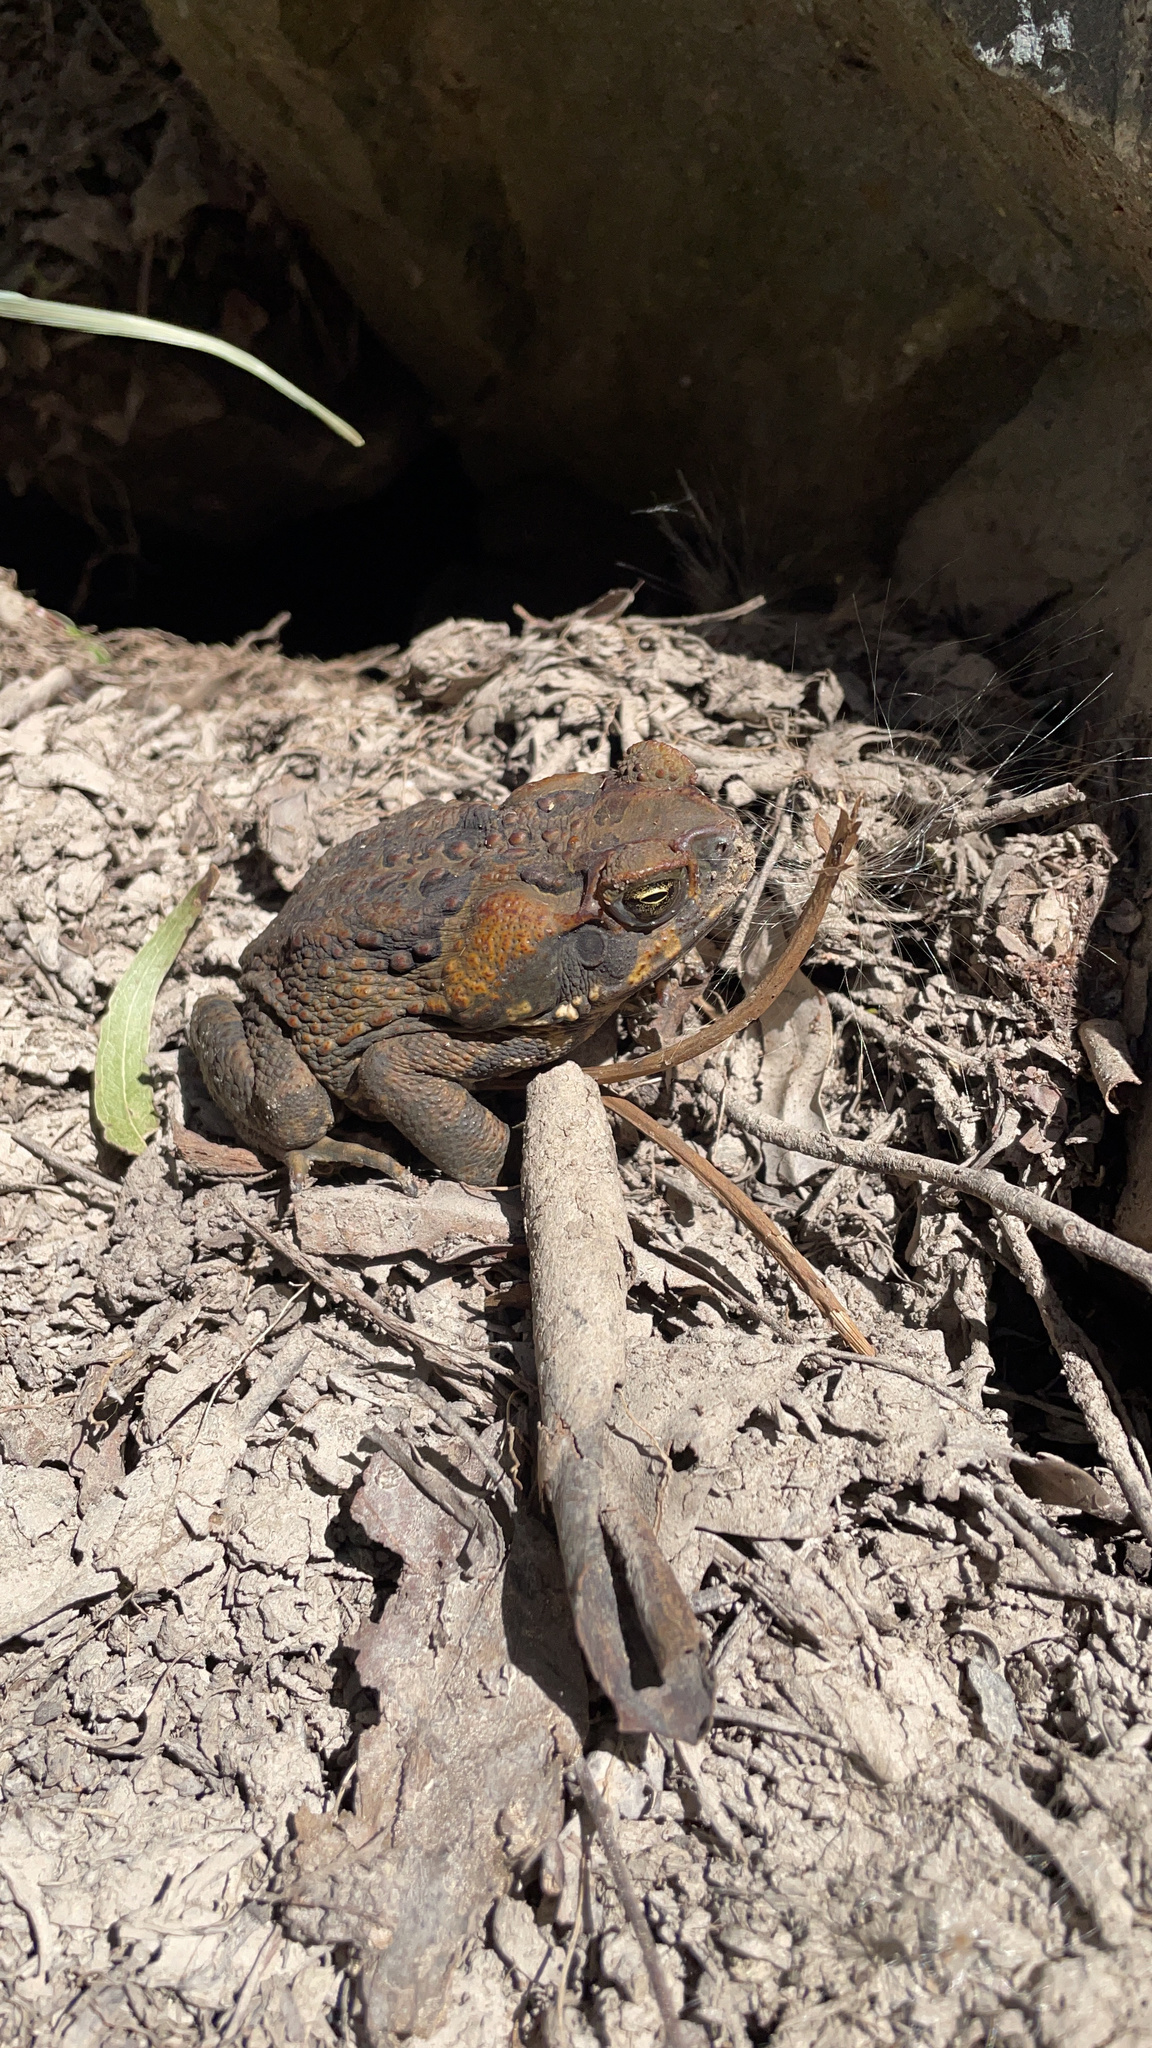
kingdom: Animalia
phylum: Chordata
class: Amphibia
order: Anura
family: Bufonidae
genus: Rhinella
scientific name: Rhinella marina
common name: Cane toad
